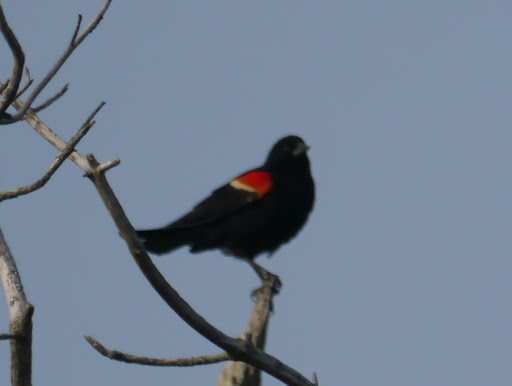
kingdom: Animalia
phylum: Chordata
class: Aves
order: Passeriformes
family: Icteridae
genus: Agelaius
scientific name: Agelaius phoeniceus
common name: Red-winged blackbird
